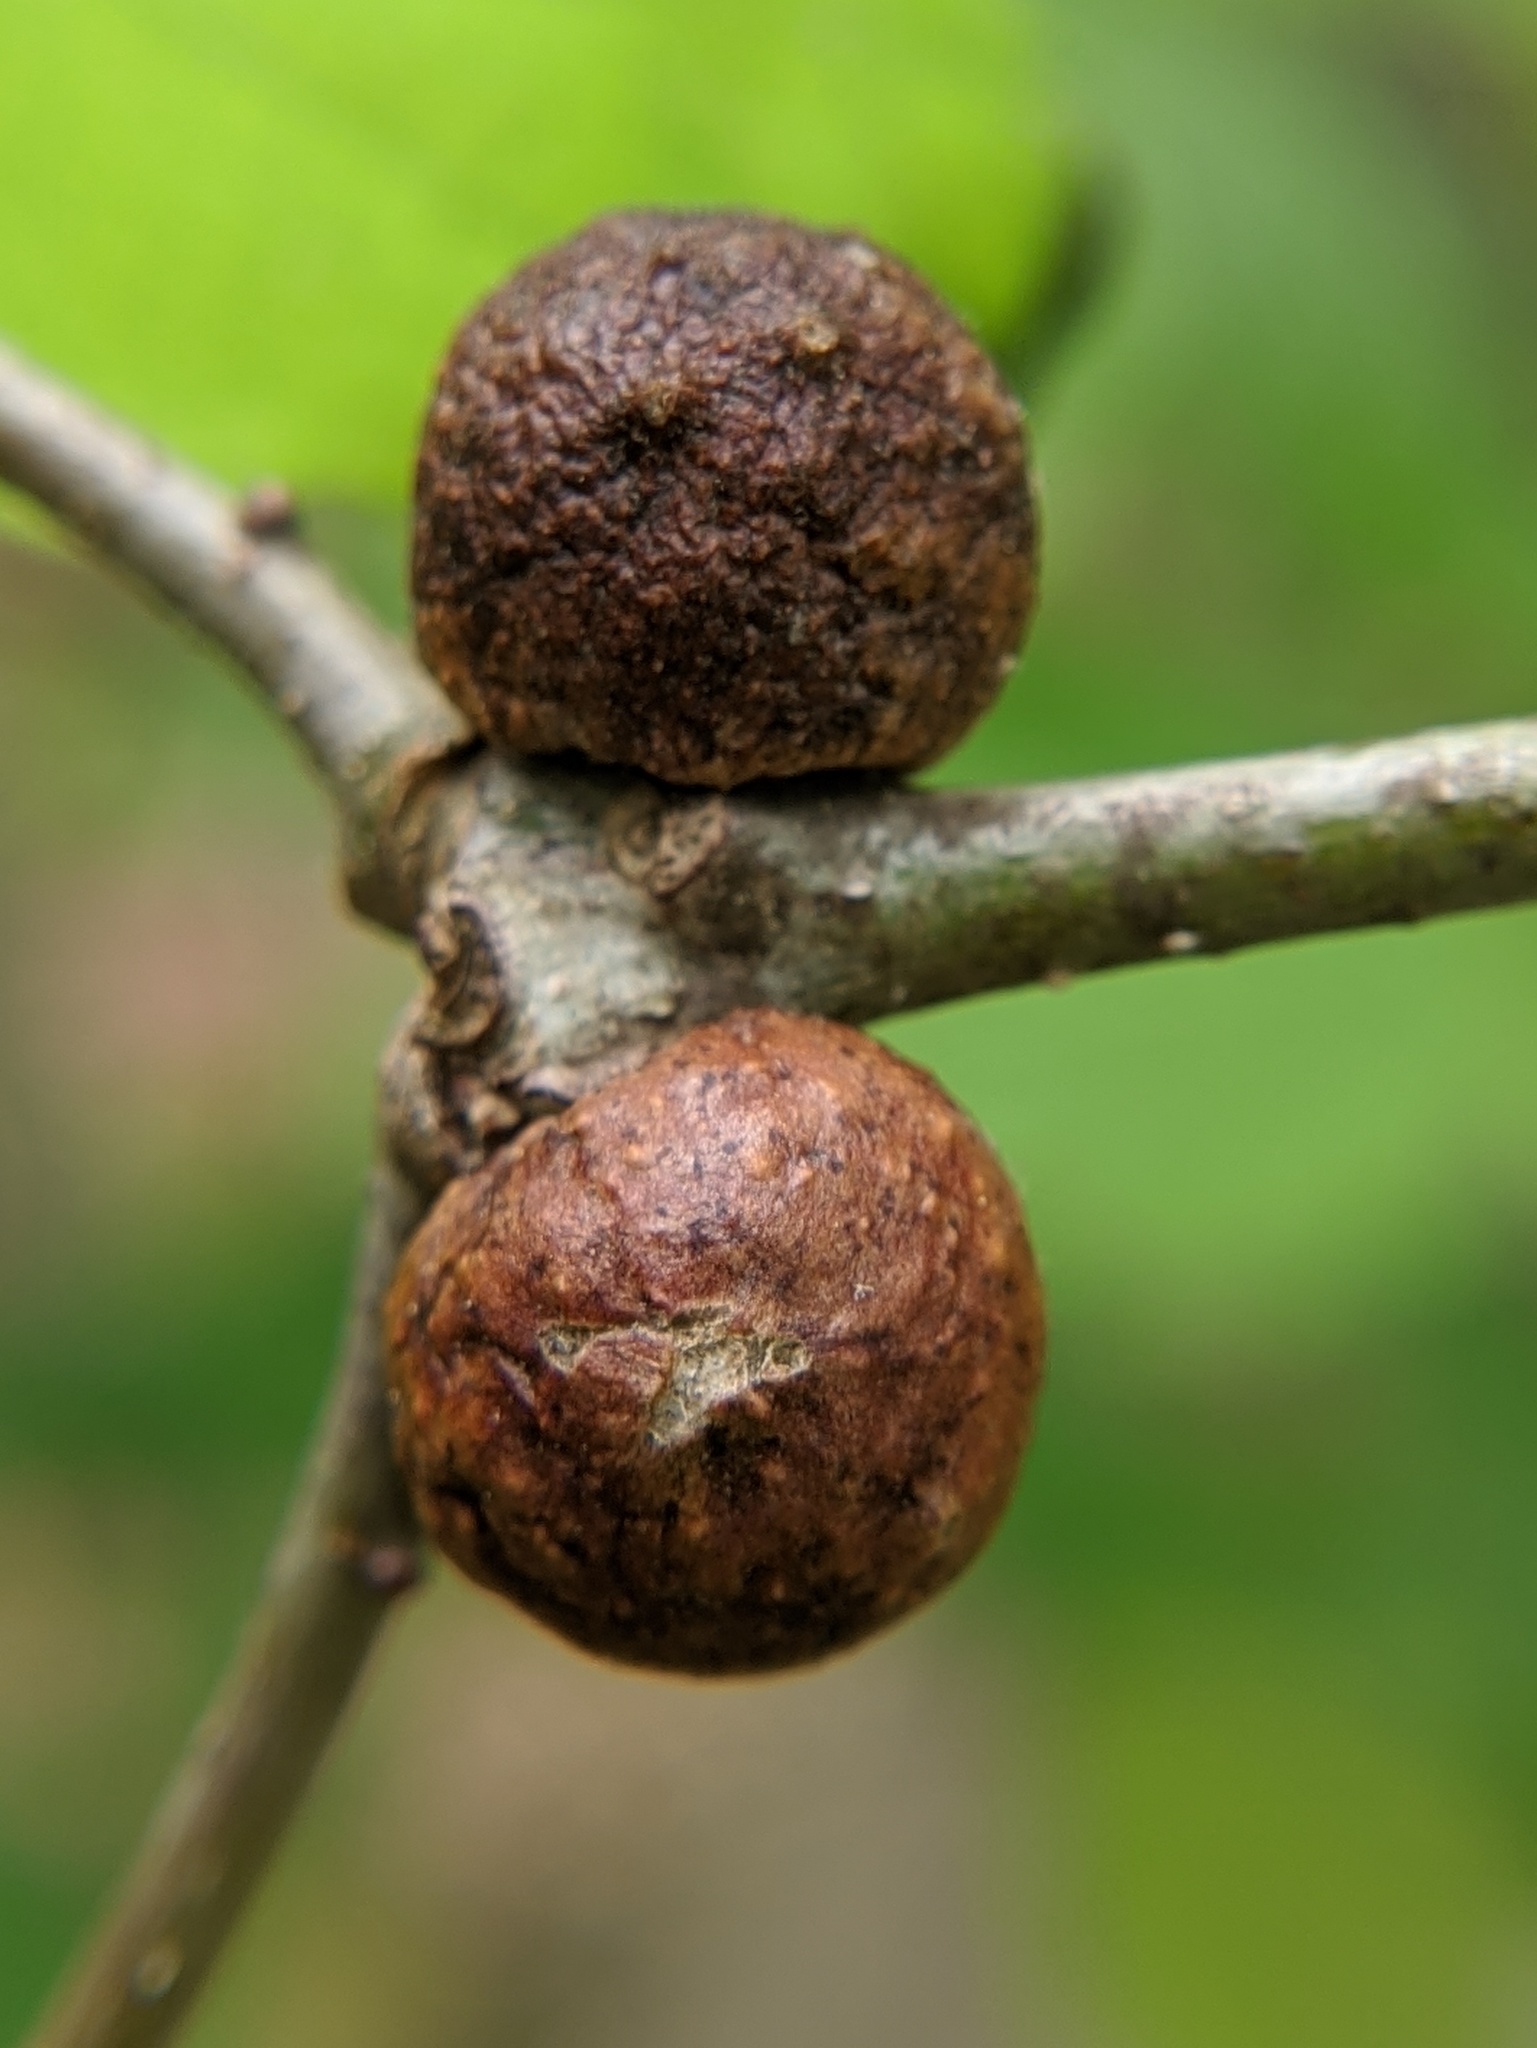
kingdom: Animalia
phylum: Arthropoda
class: Insecta
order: Hymenoptera
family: Cynipidae
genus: Disholcaspis
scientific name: Disholcaspis quercusglobulus
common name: Round bullet gall wasp
